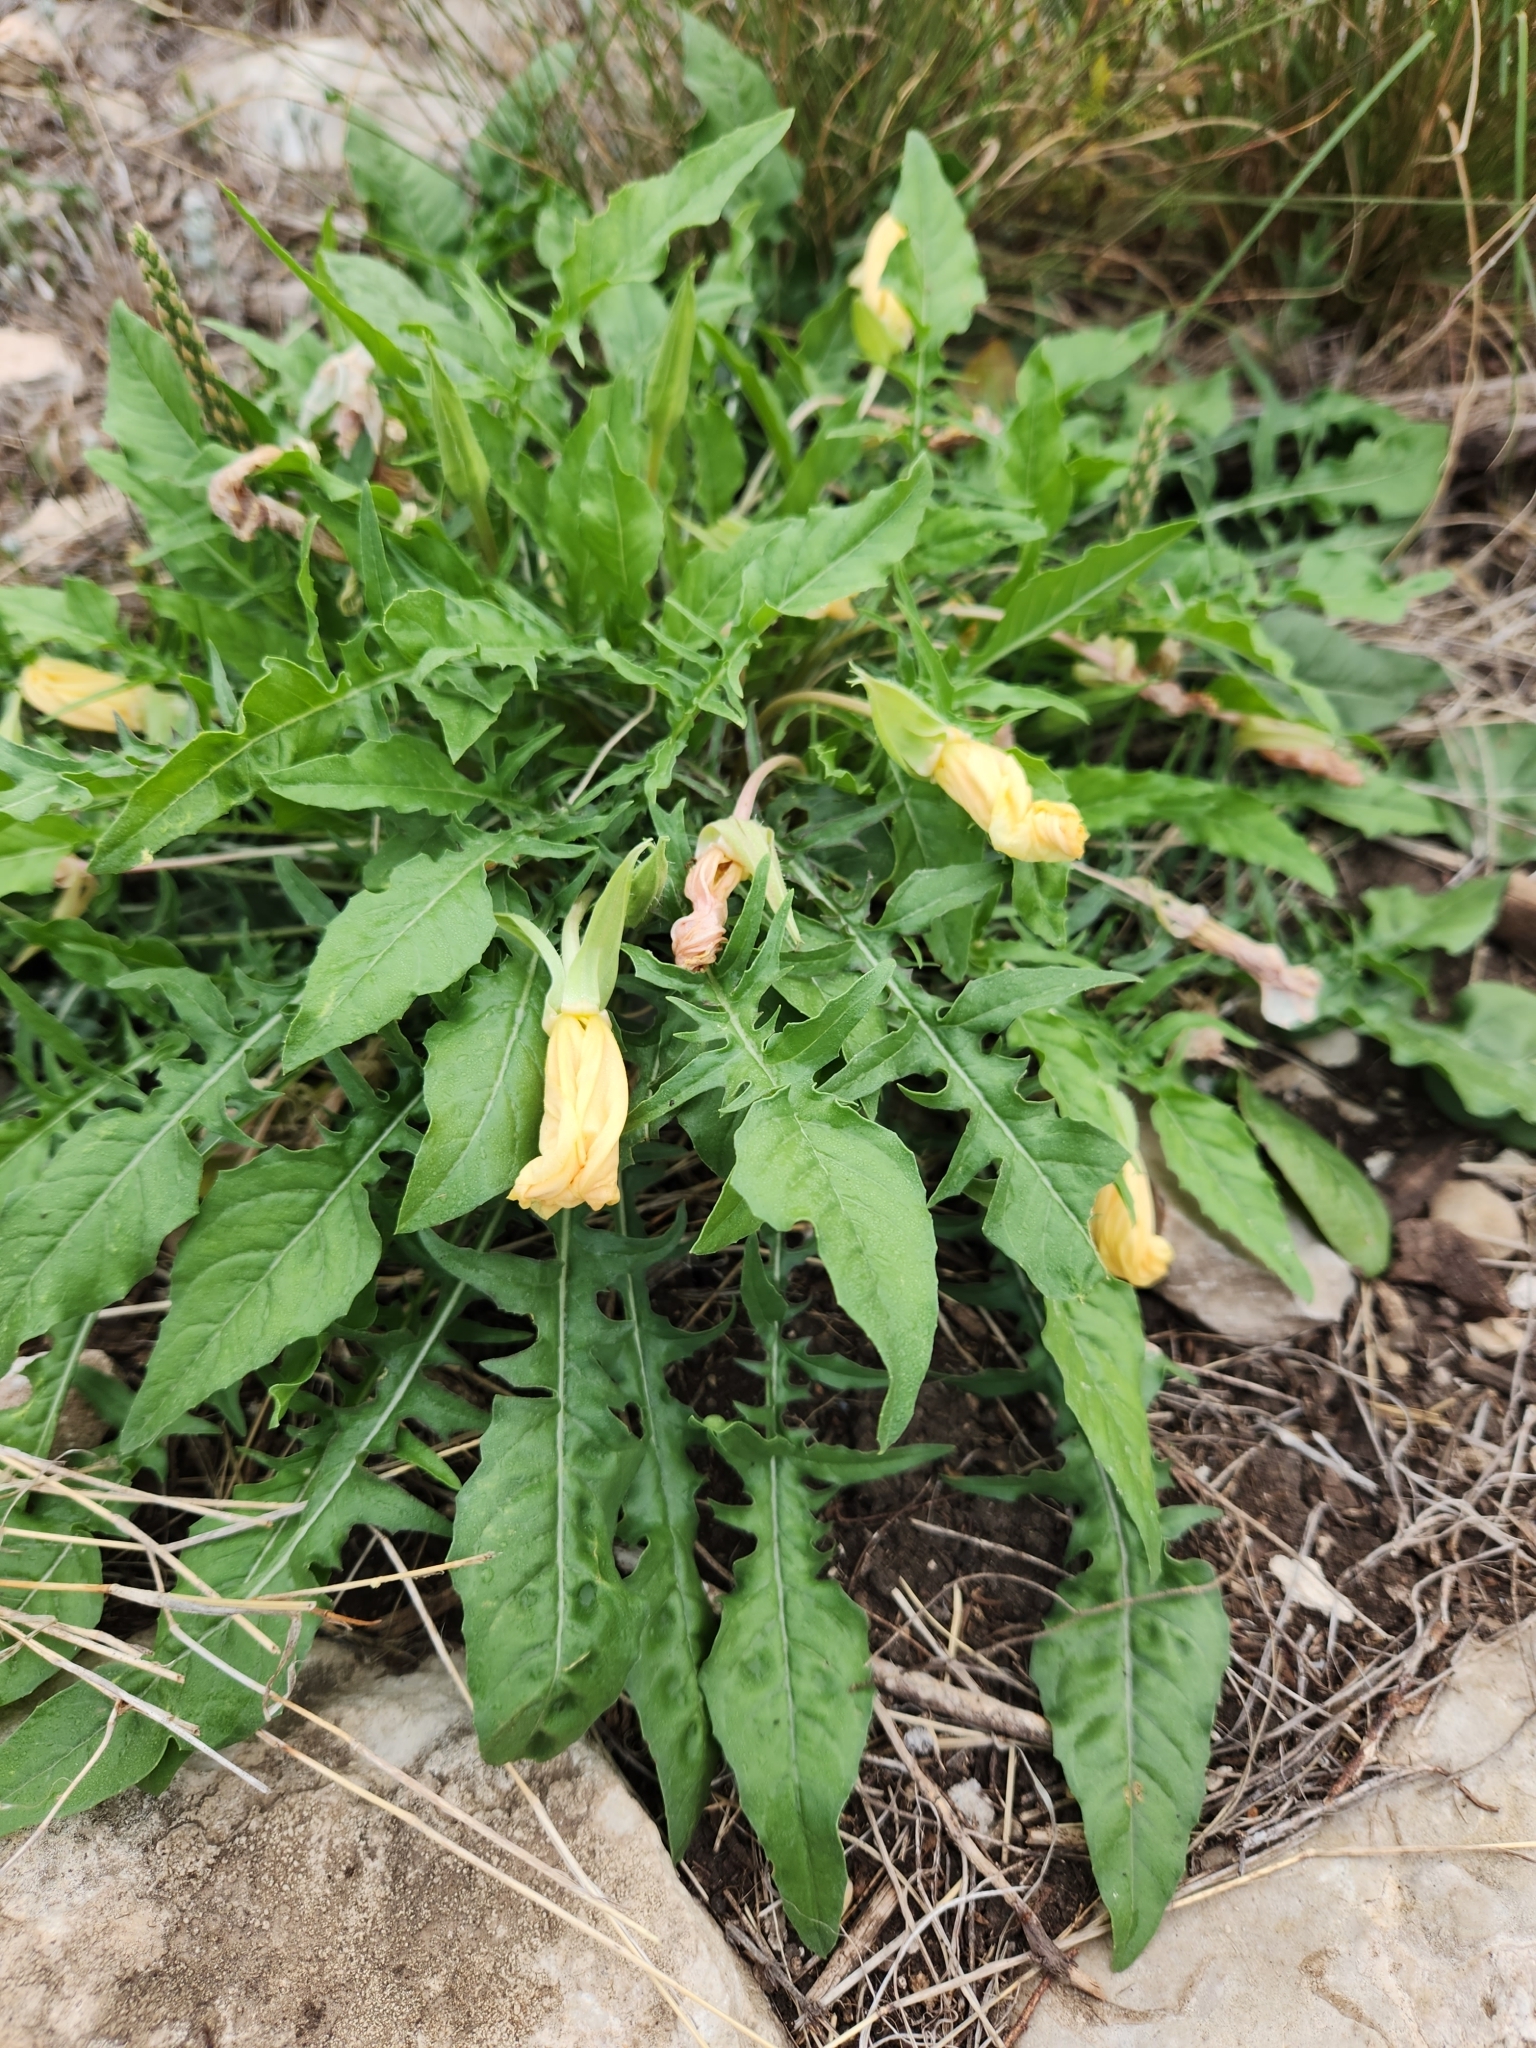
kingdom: Plantae
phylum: Tracheophyta
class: Magnoliopsida
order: Myrtales
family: Onagraceae
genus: Oenothera
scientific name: Oenothera triloba
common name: Sessile evening-primrose
